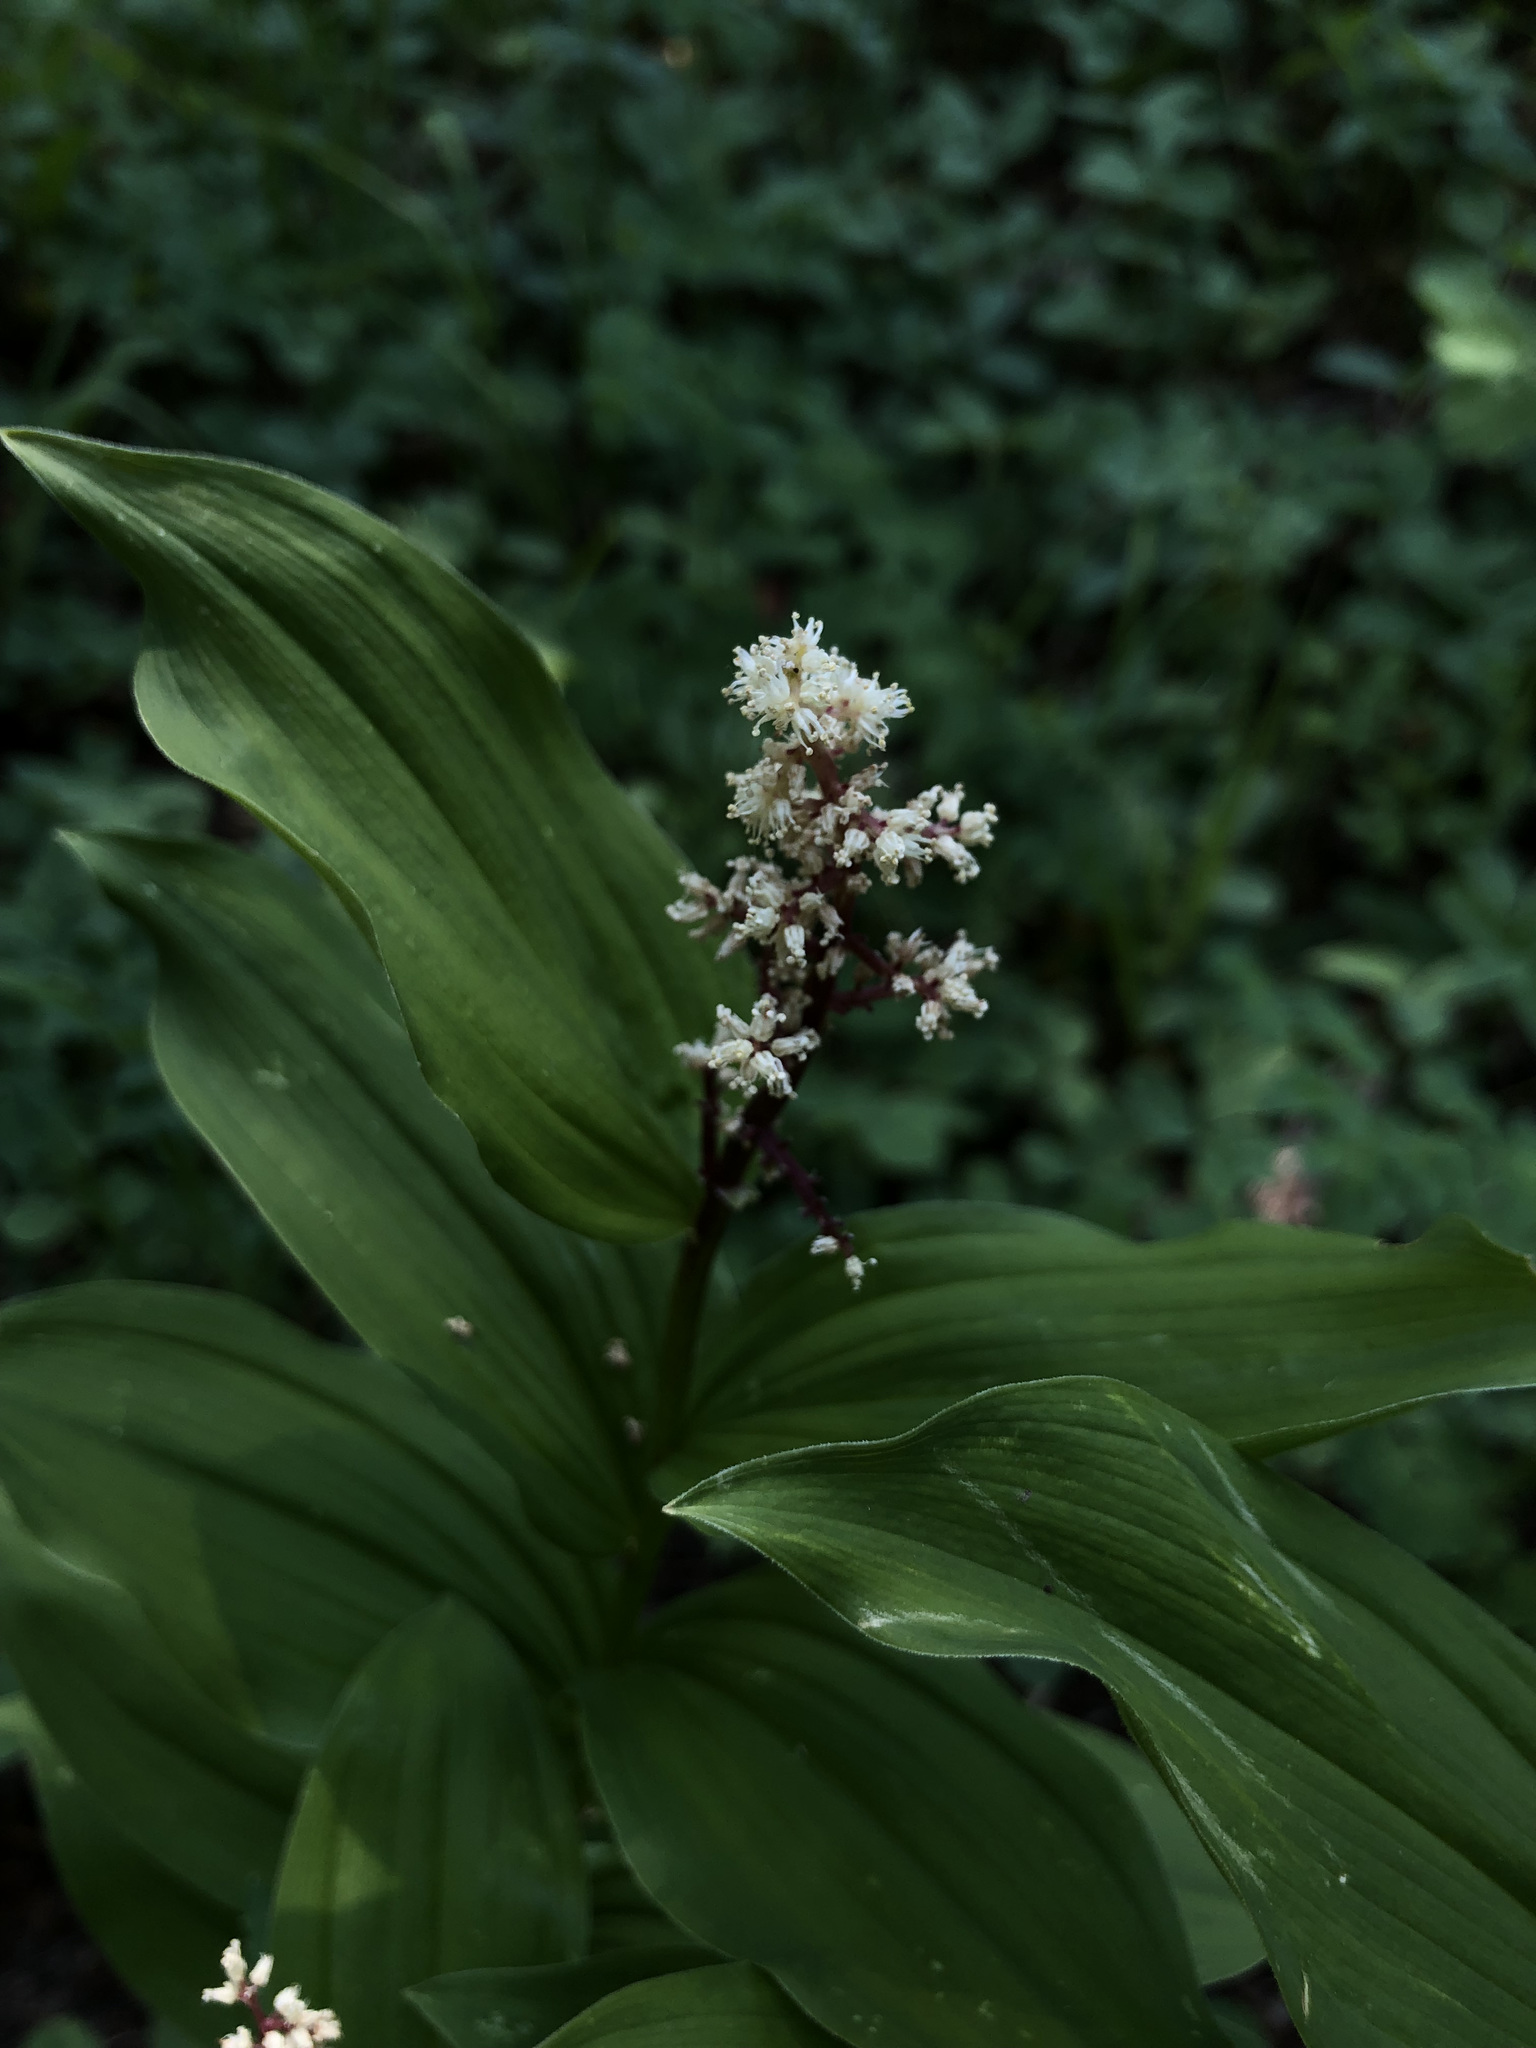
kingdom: Plantae
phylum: Tracheophyta
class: Liliopsida
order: Asparagales
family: Asparagaceae
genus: Maianthemum
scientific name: Maianthemum racemosum
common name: False spikenard
